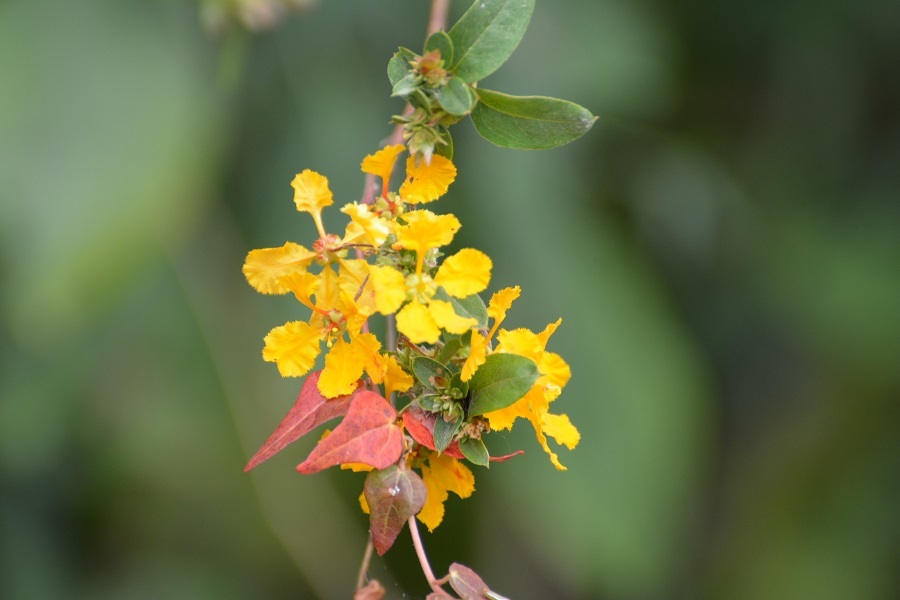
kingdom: Plantae
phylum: Tracheophyta
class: Magnoliopsida
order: Malpighiales
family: Malpighiaceae
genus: Gaudichaudia
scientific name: Gaudichaudia cynanchoides
